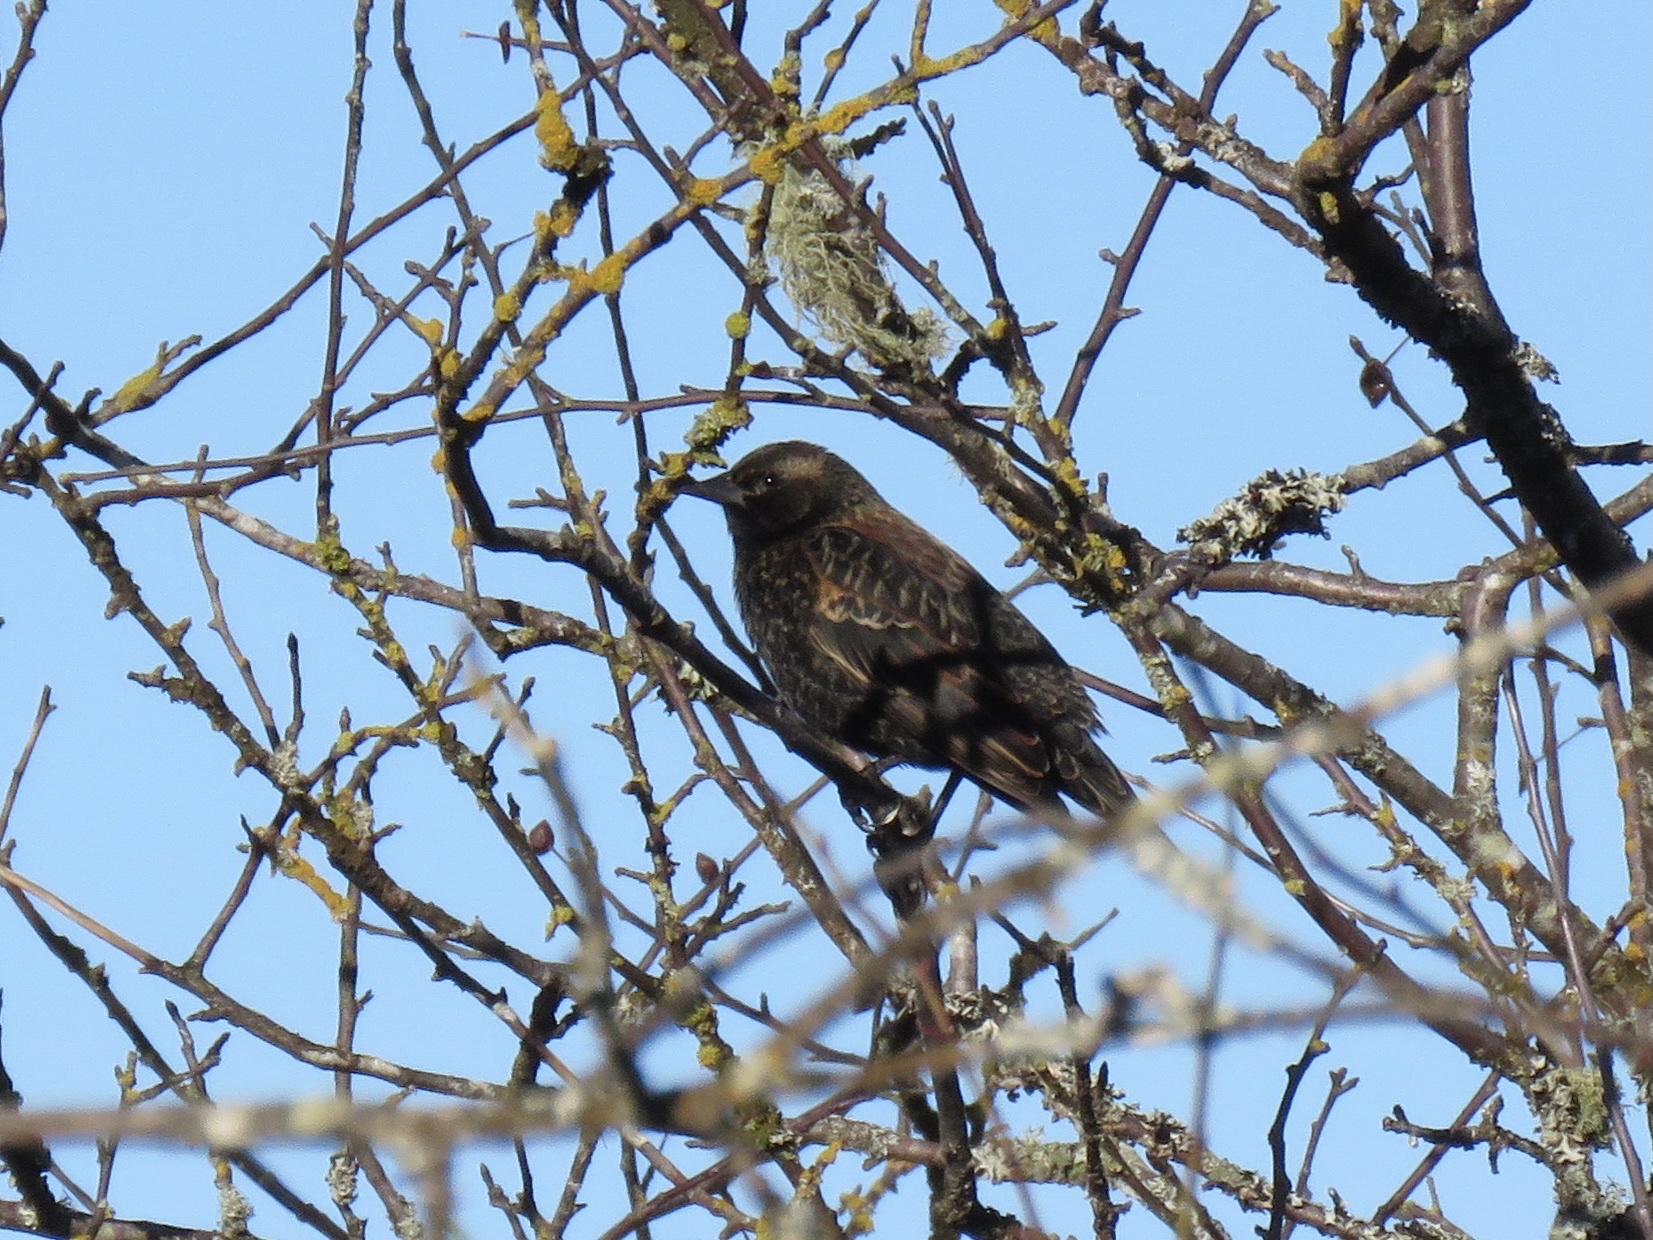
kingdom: Animalia
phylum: Chordata
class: Aves
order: Passeriformes
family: Sturnidae
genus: Sturnus
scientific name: Sturnus vulgaris
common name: Common starling
